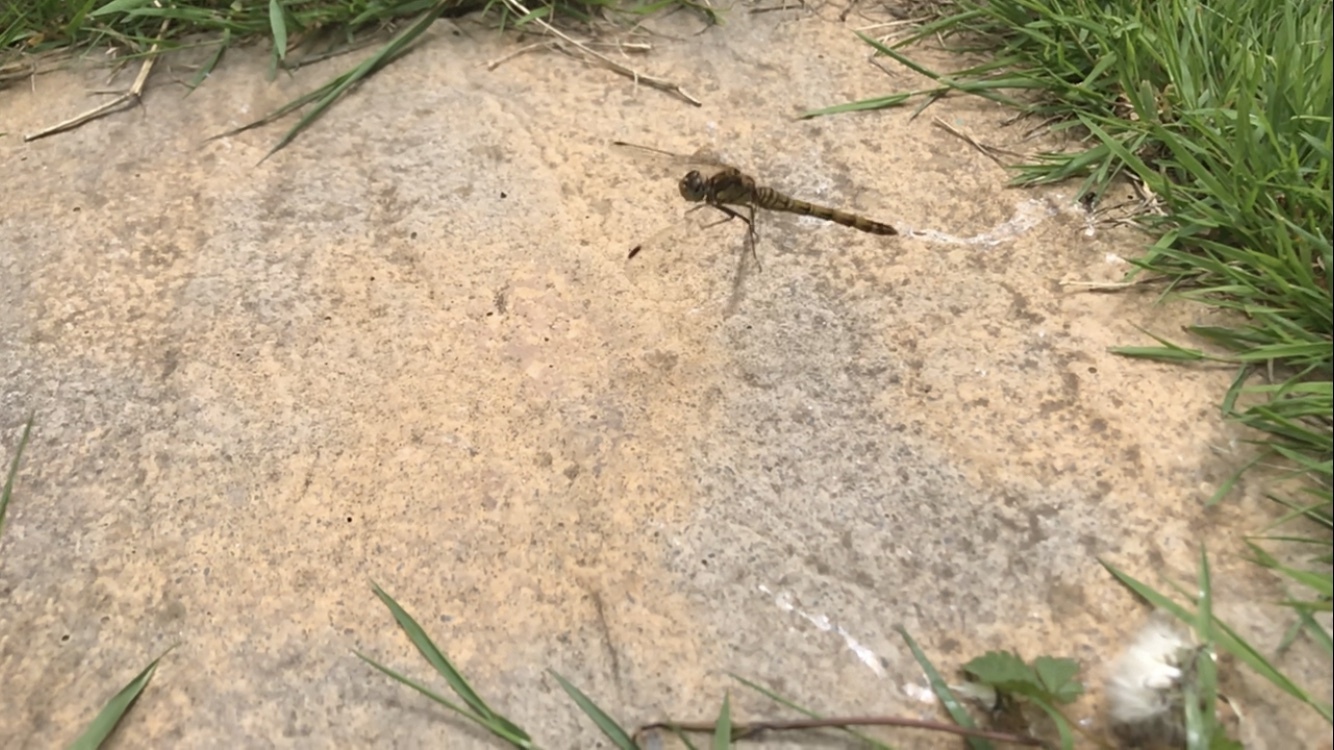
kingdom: Animalia
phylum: Arthropoda
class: Insecta
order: Odonata
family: Libellulidae
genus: Sympetrum
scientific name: Sympetrum striolatum
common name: Common darter
